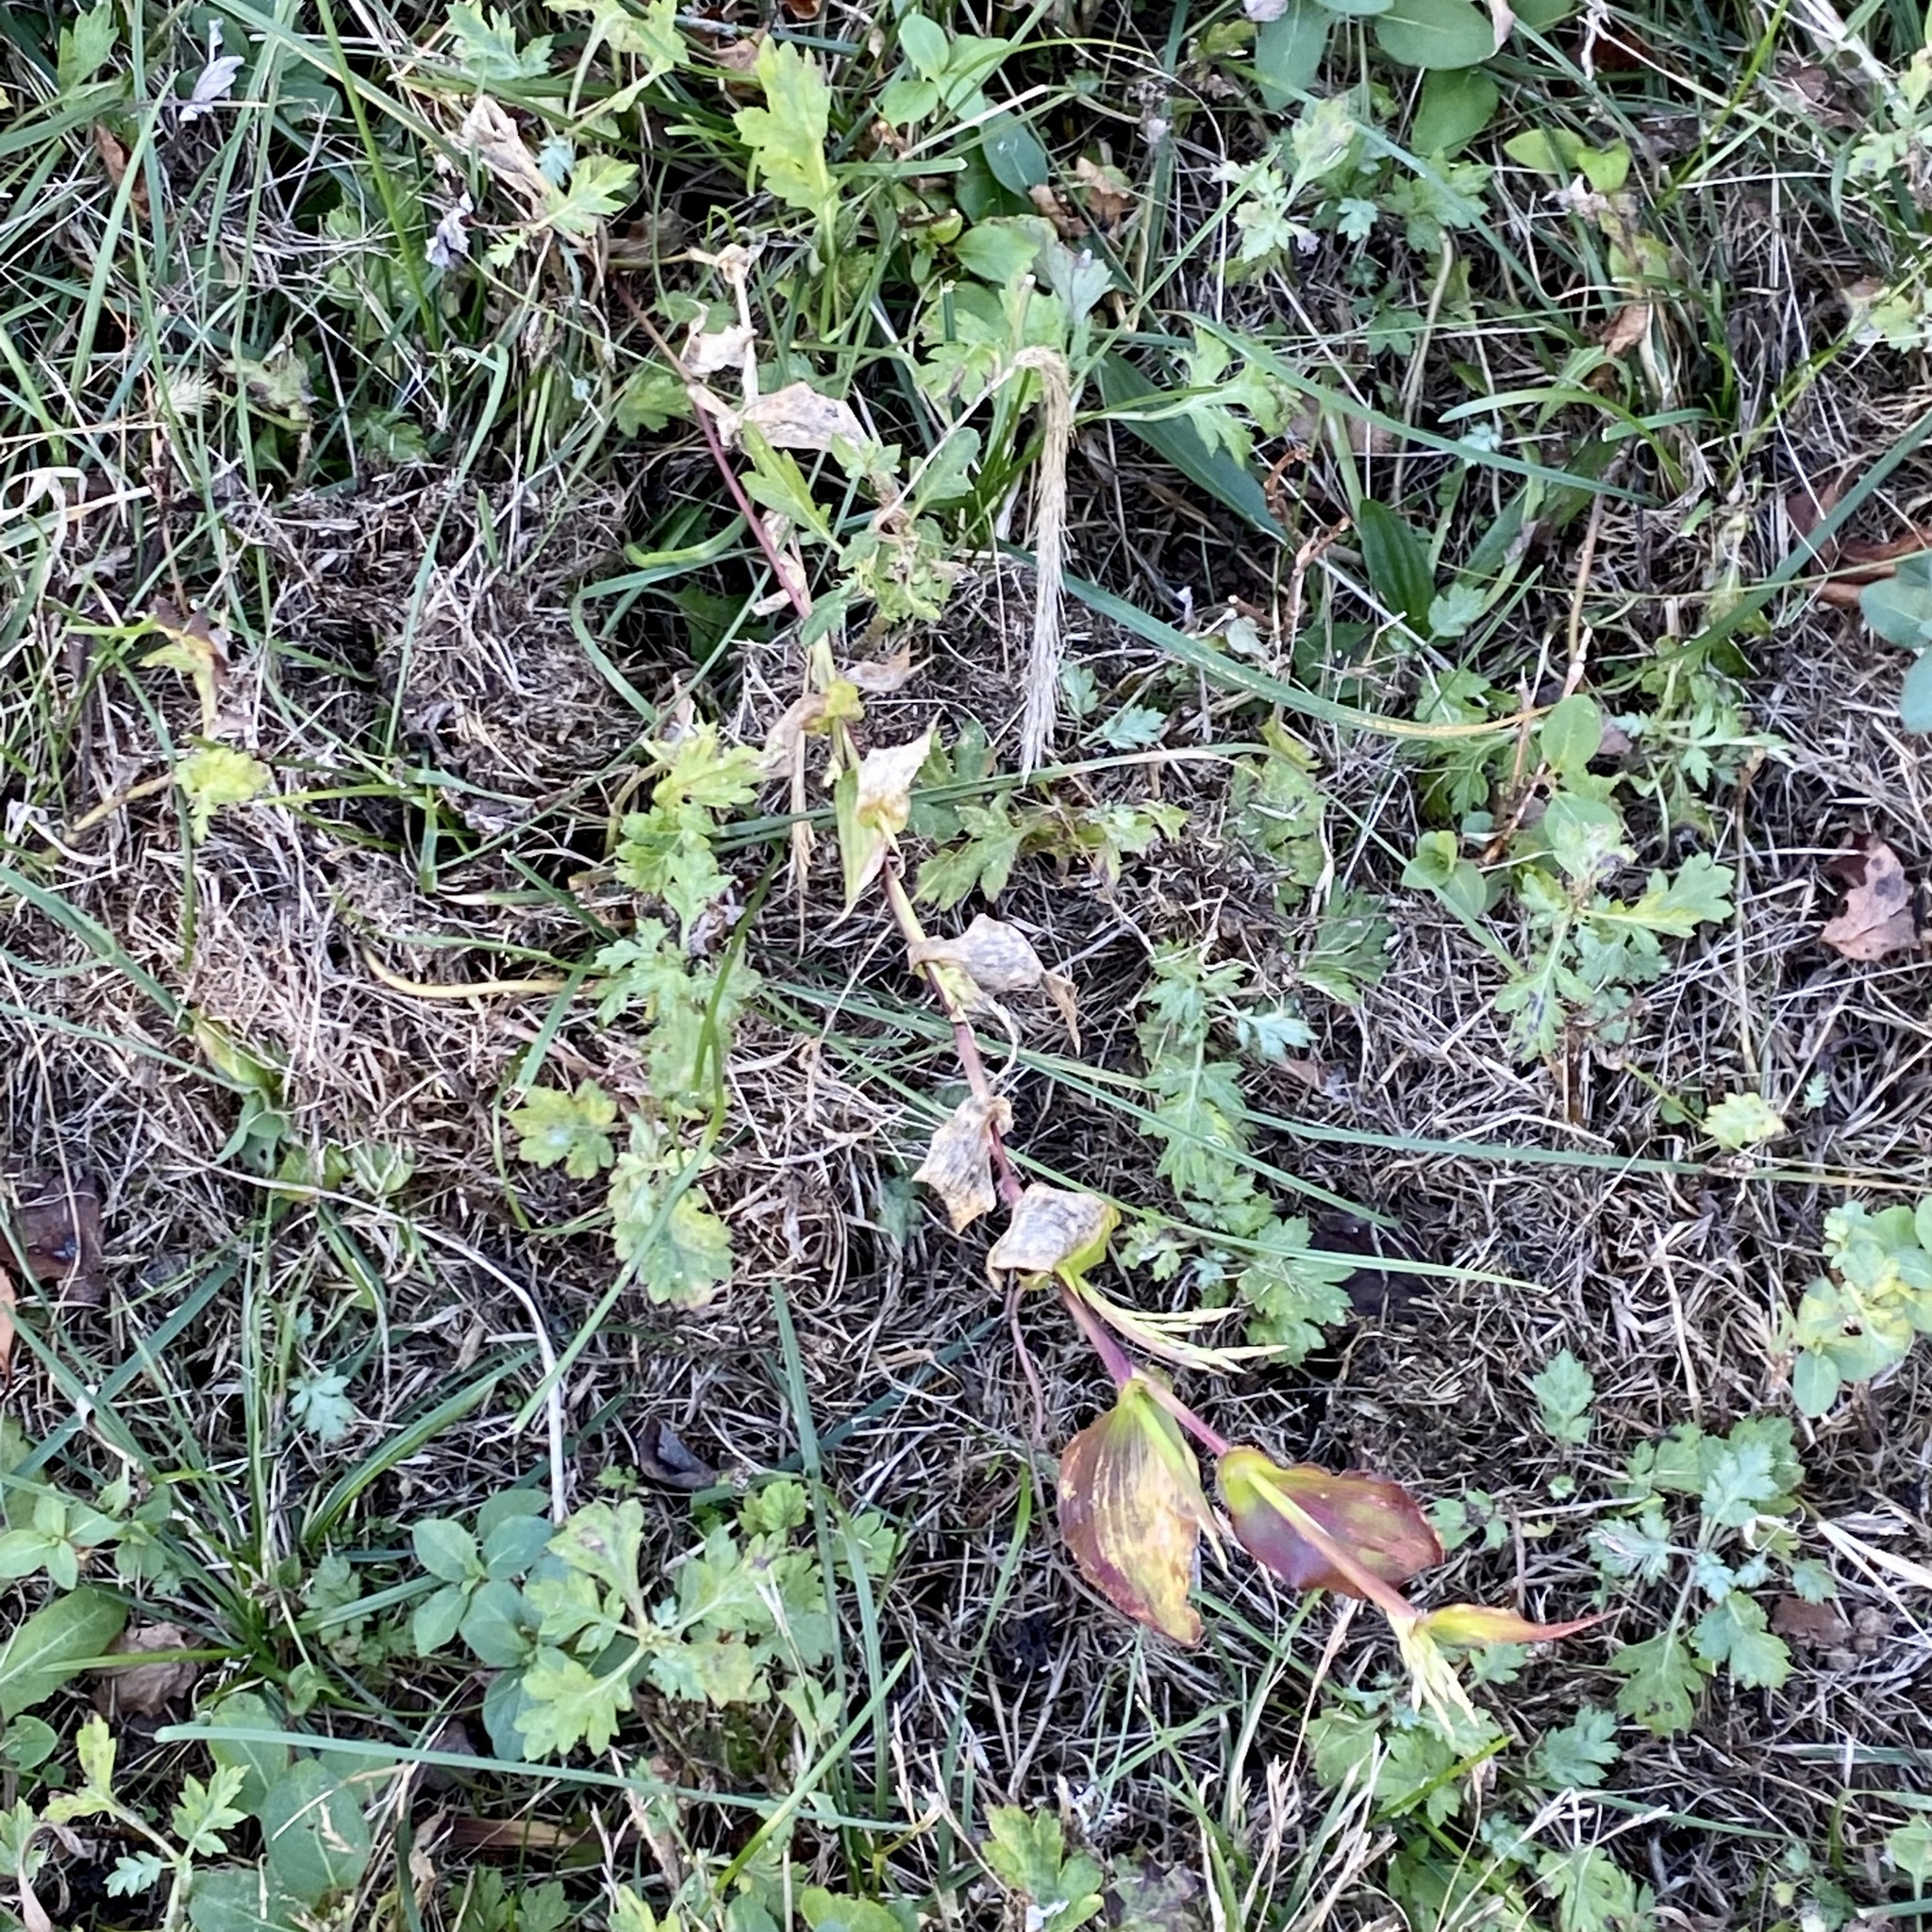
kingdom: Plantae
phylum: Tracheophyta
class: Liliopsida
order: Poales
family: Poaceae
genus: Arthraxon
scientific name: Arthraxon hispidus
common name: Small carpgrass
